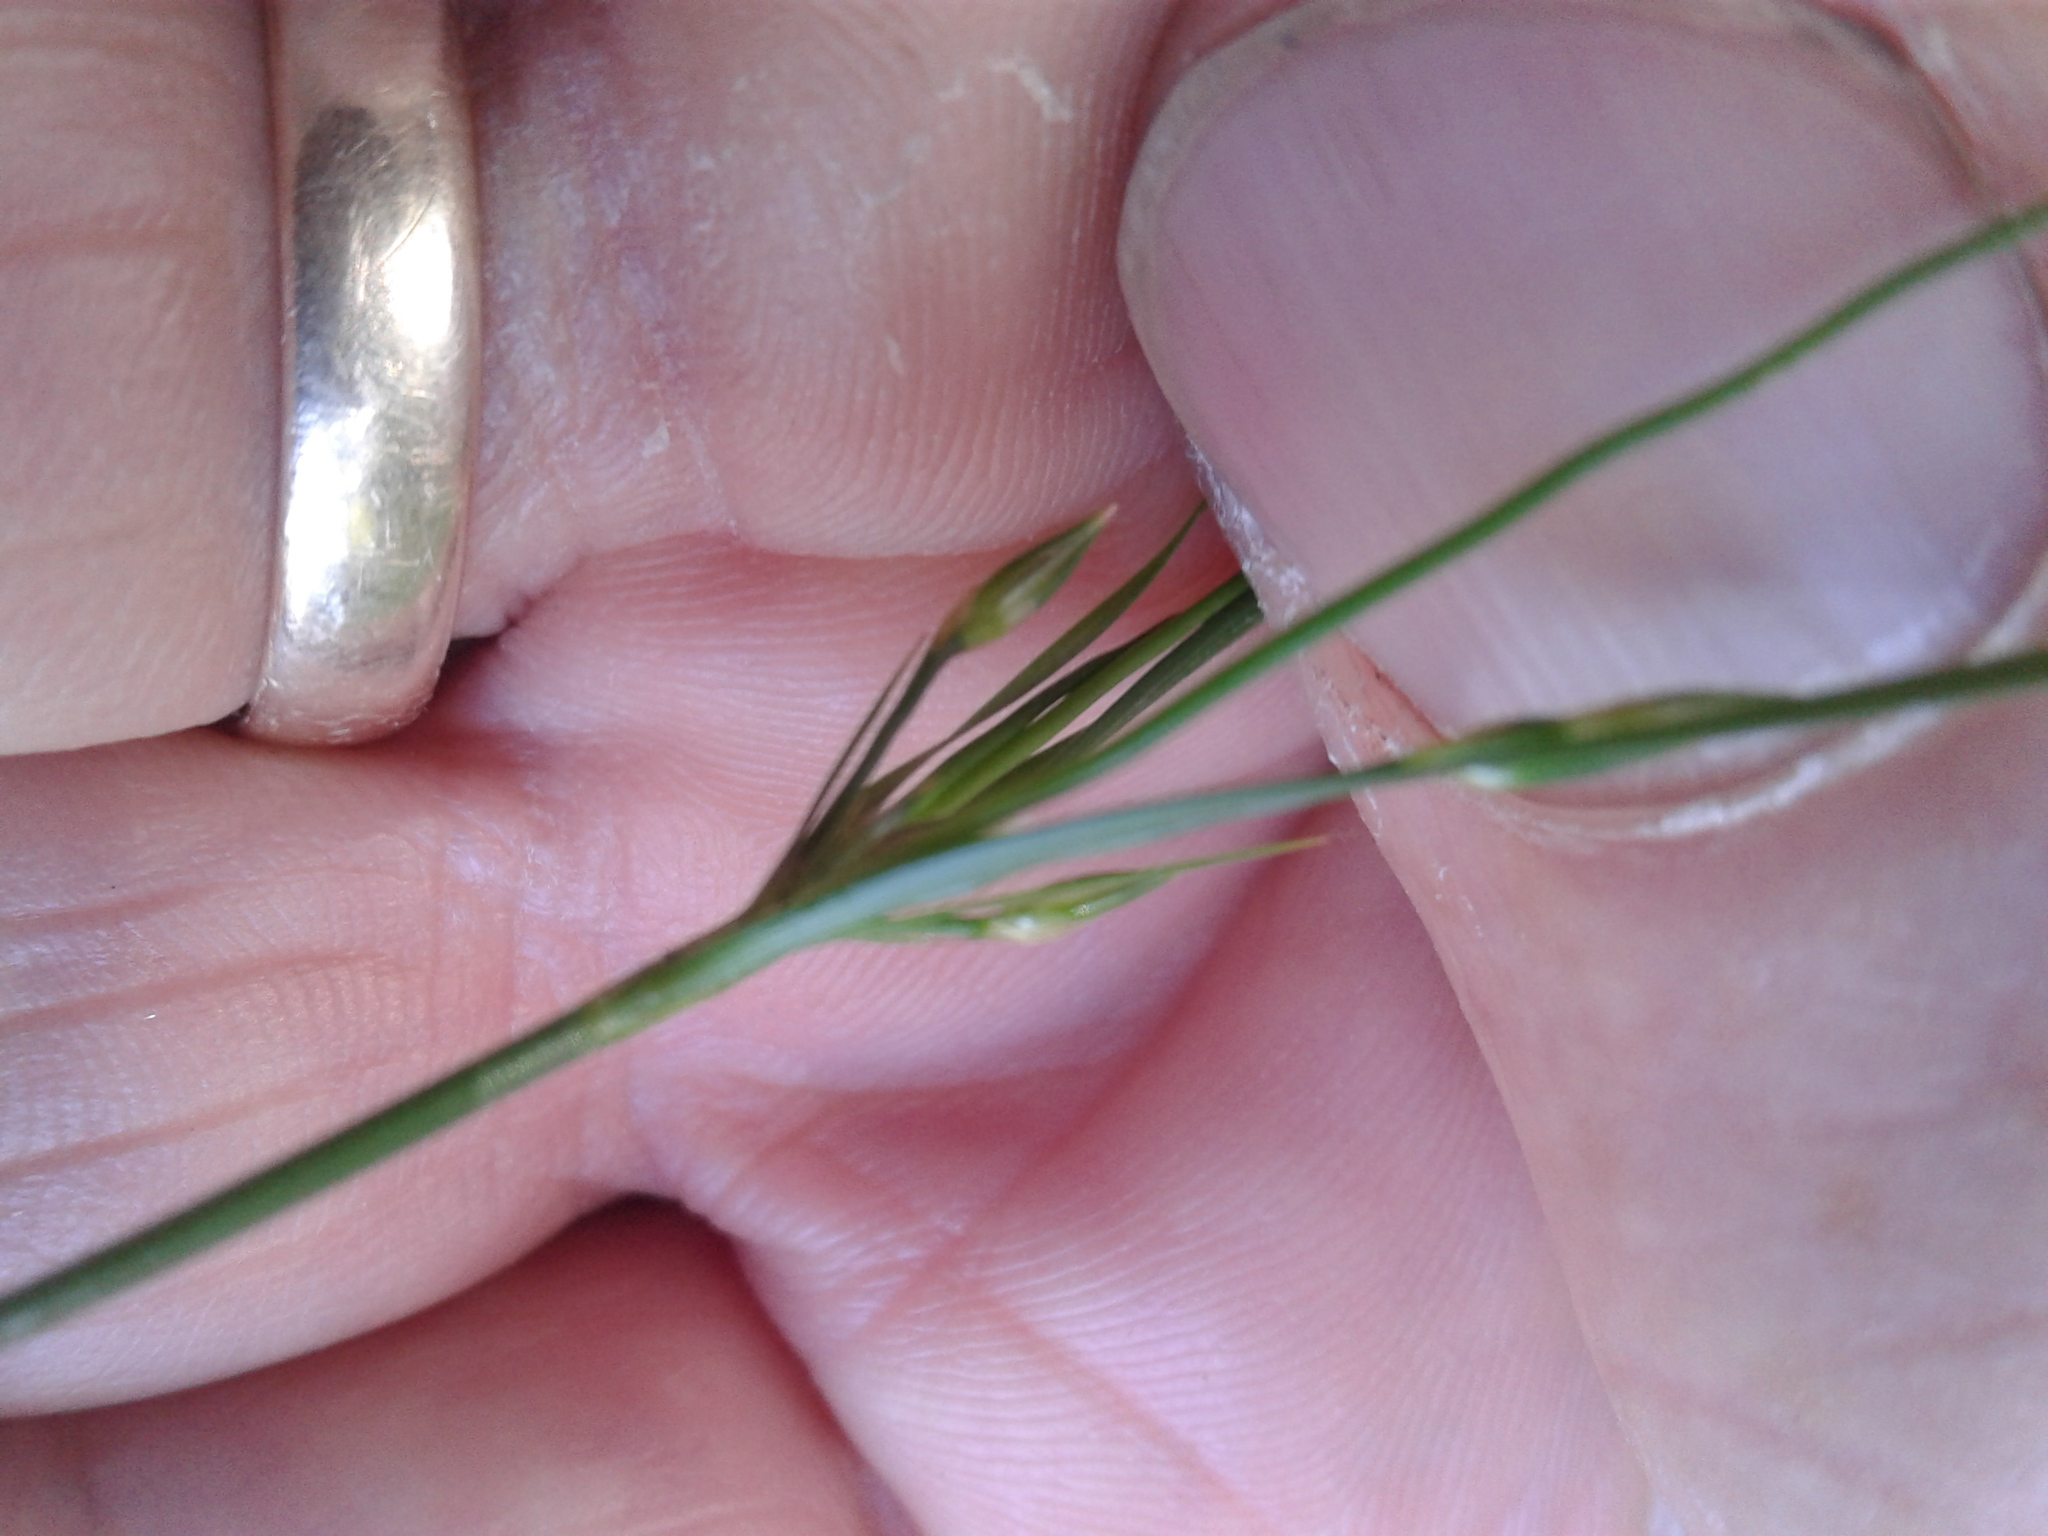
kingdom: Plantae
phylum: Tracheophyta
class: Liliopsida
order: Poales
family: Juncaceae
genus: Juncus
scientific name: Juncus tenuis
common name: Slender rush
